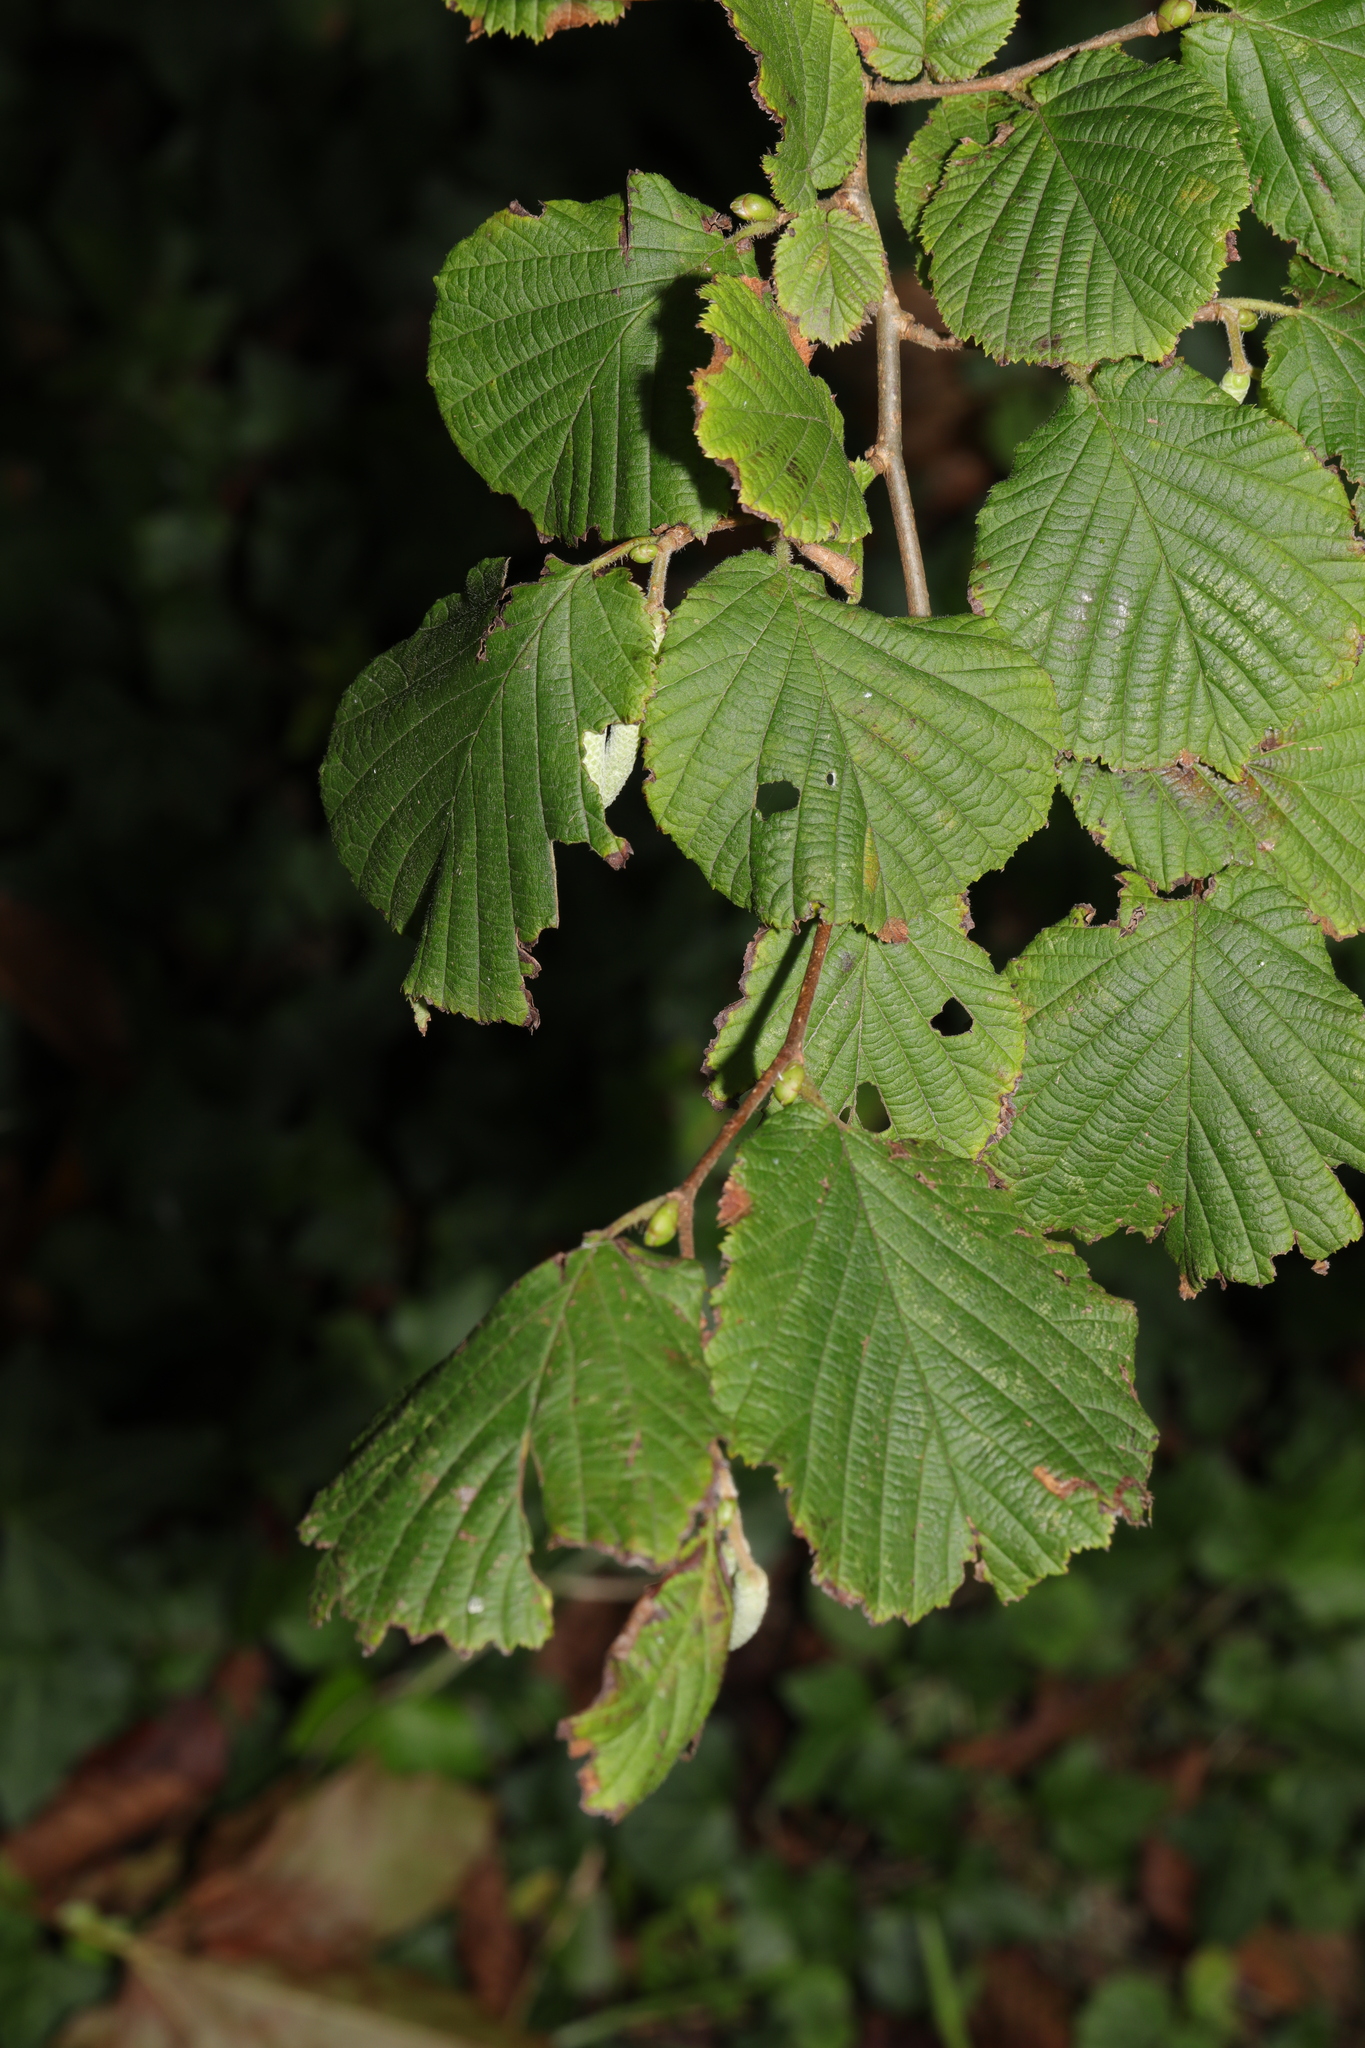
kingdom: Plantae
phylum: Tracheophyta
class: Magnoliopsida
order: Fagales
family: Betulaceae
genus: Corylus
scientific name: Corylus avellana
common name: European hazel
